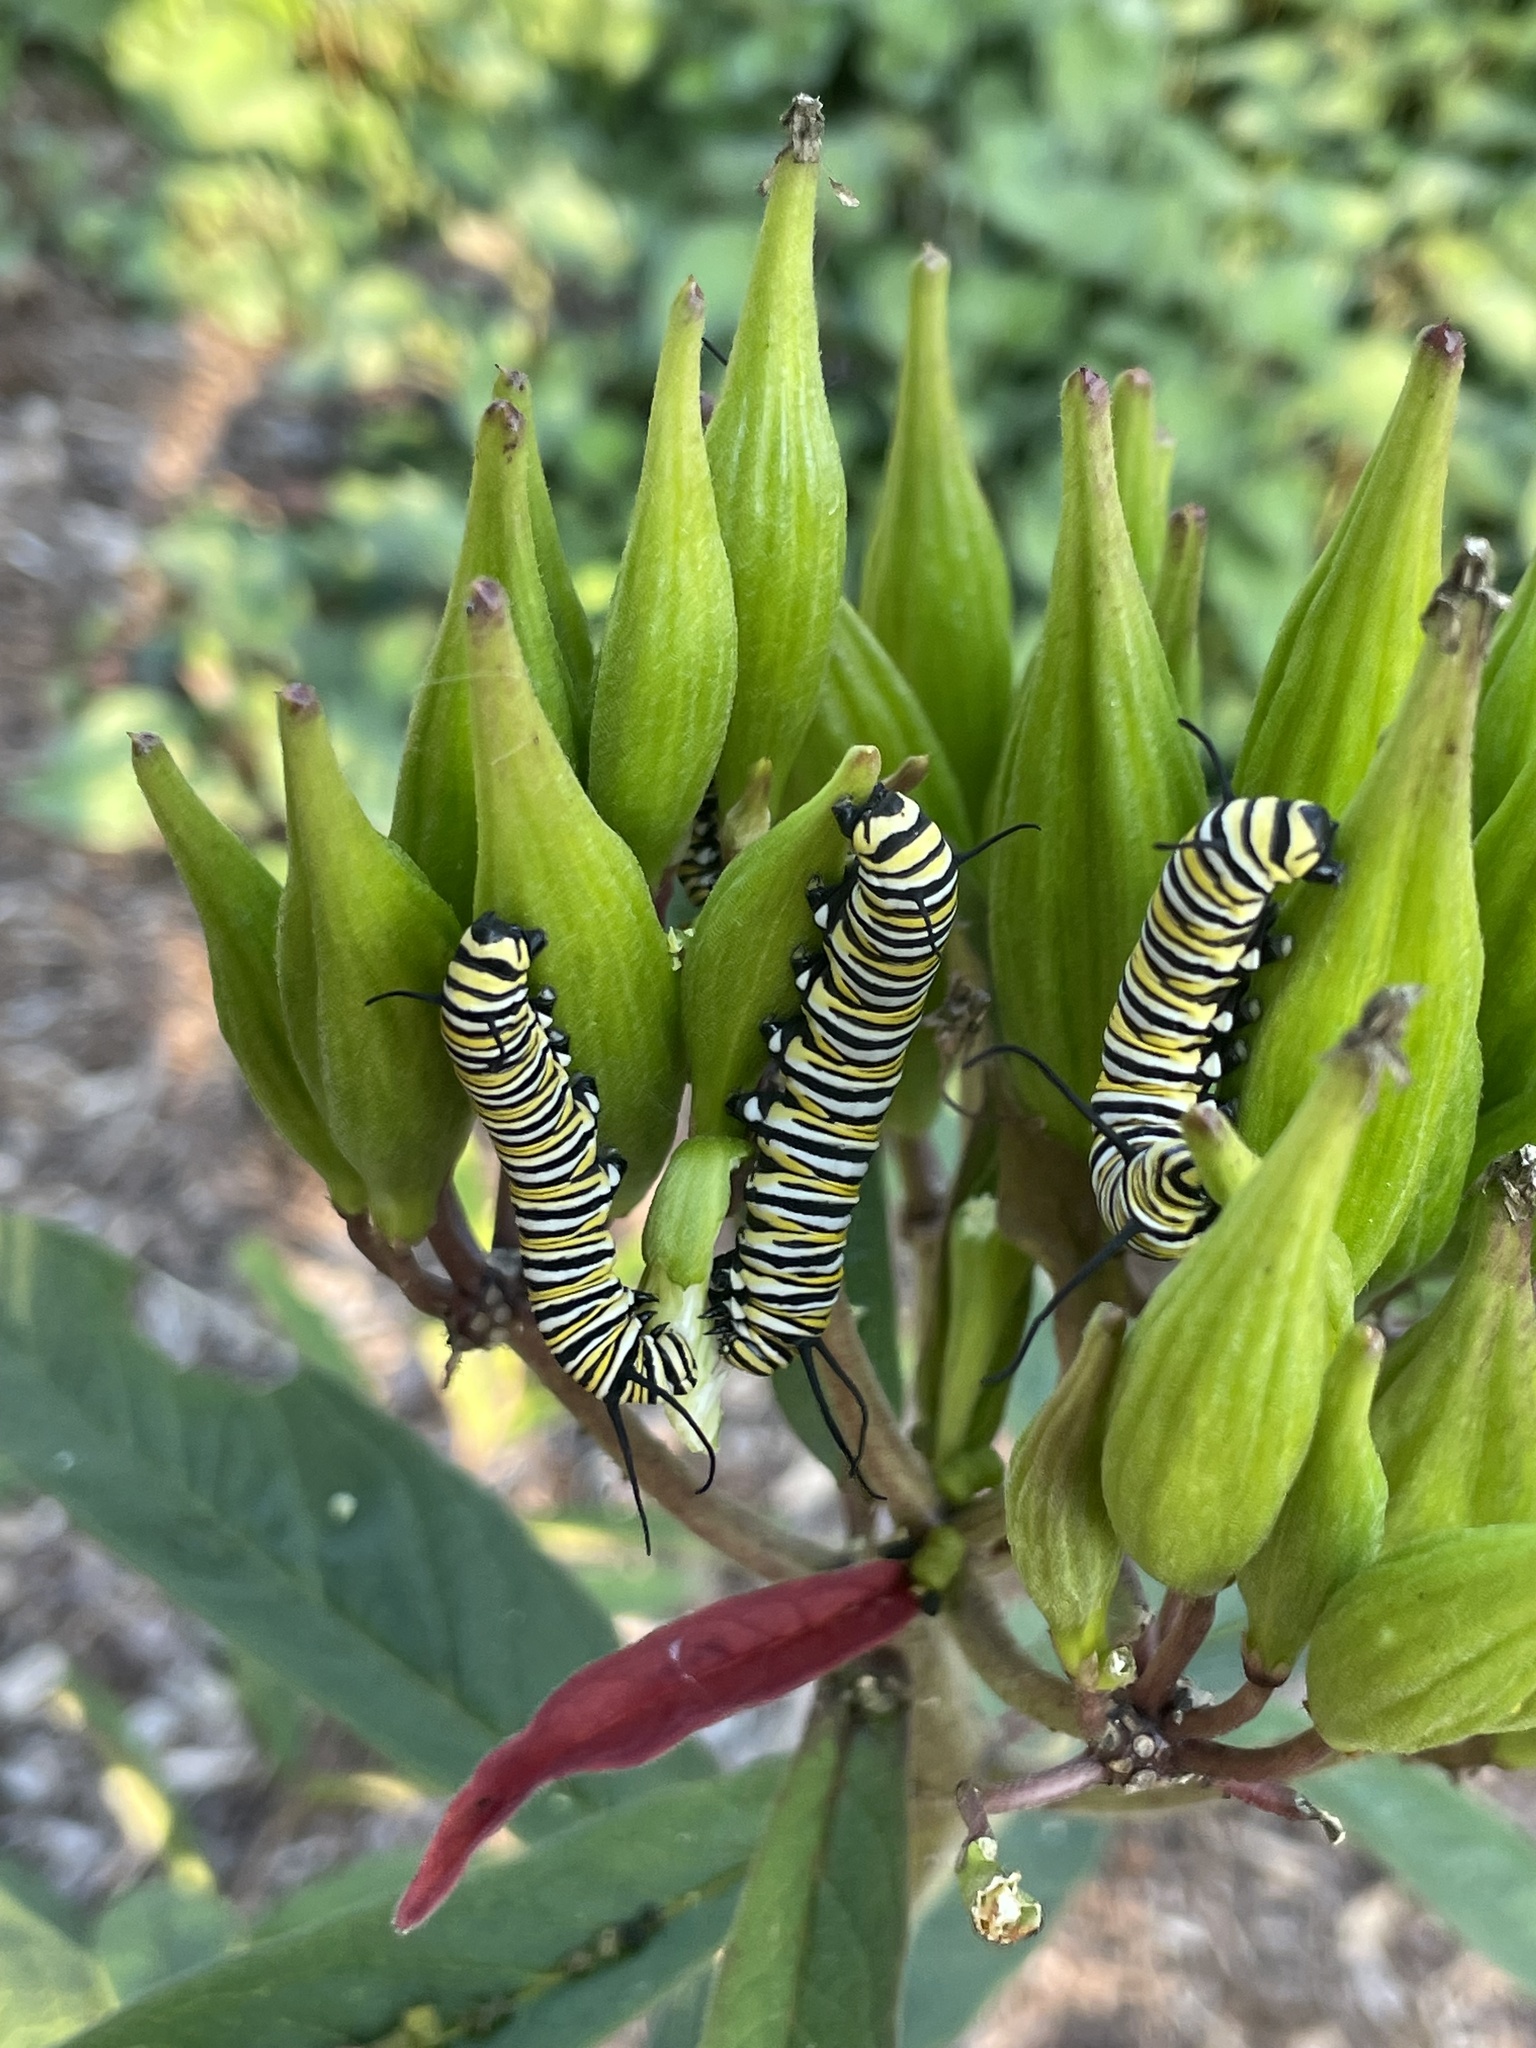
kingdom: Animalia
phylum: Arthropoda
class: Insecta
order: Lepidoptera
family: Nymphalidae
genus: Danaus
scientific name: Danaus plexippus
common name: Monarch
